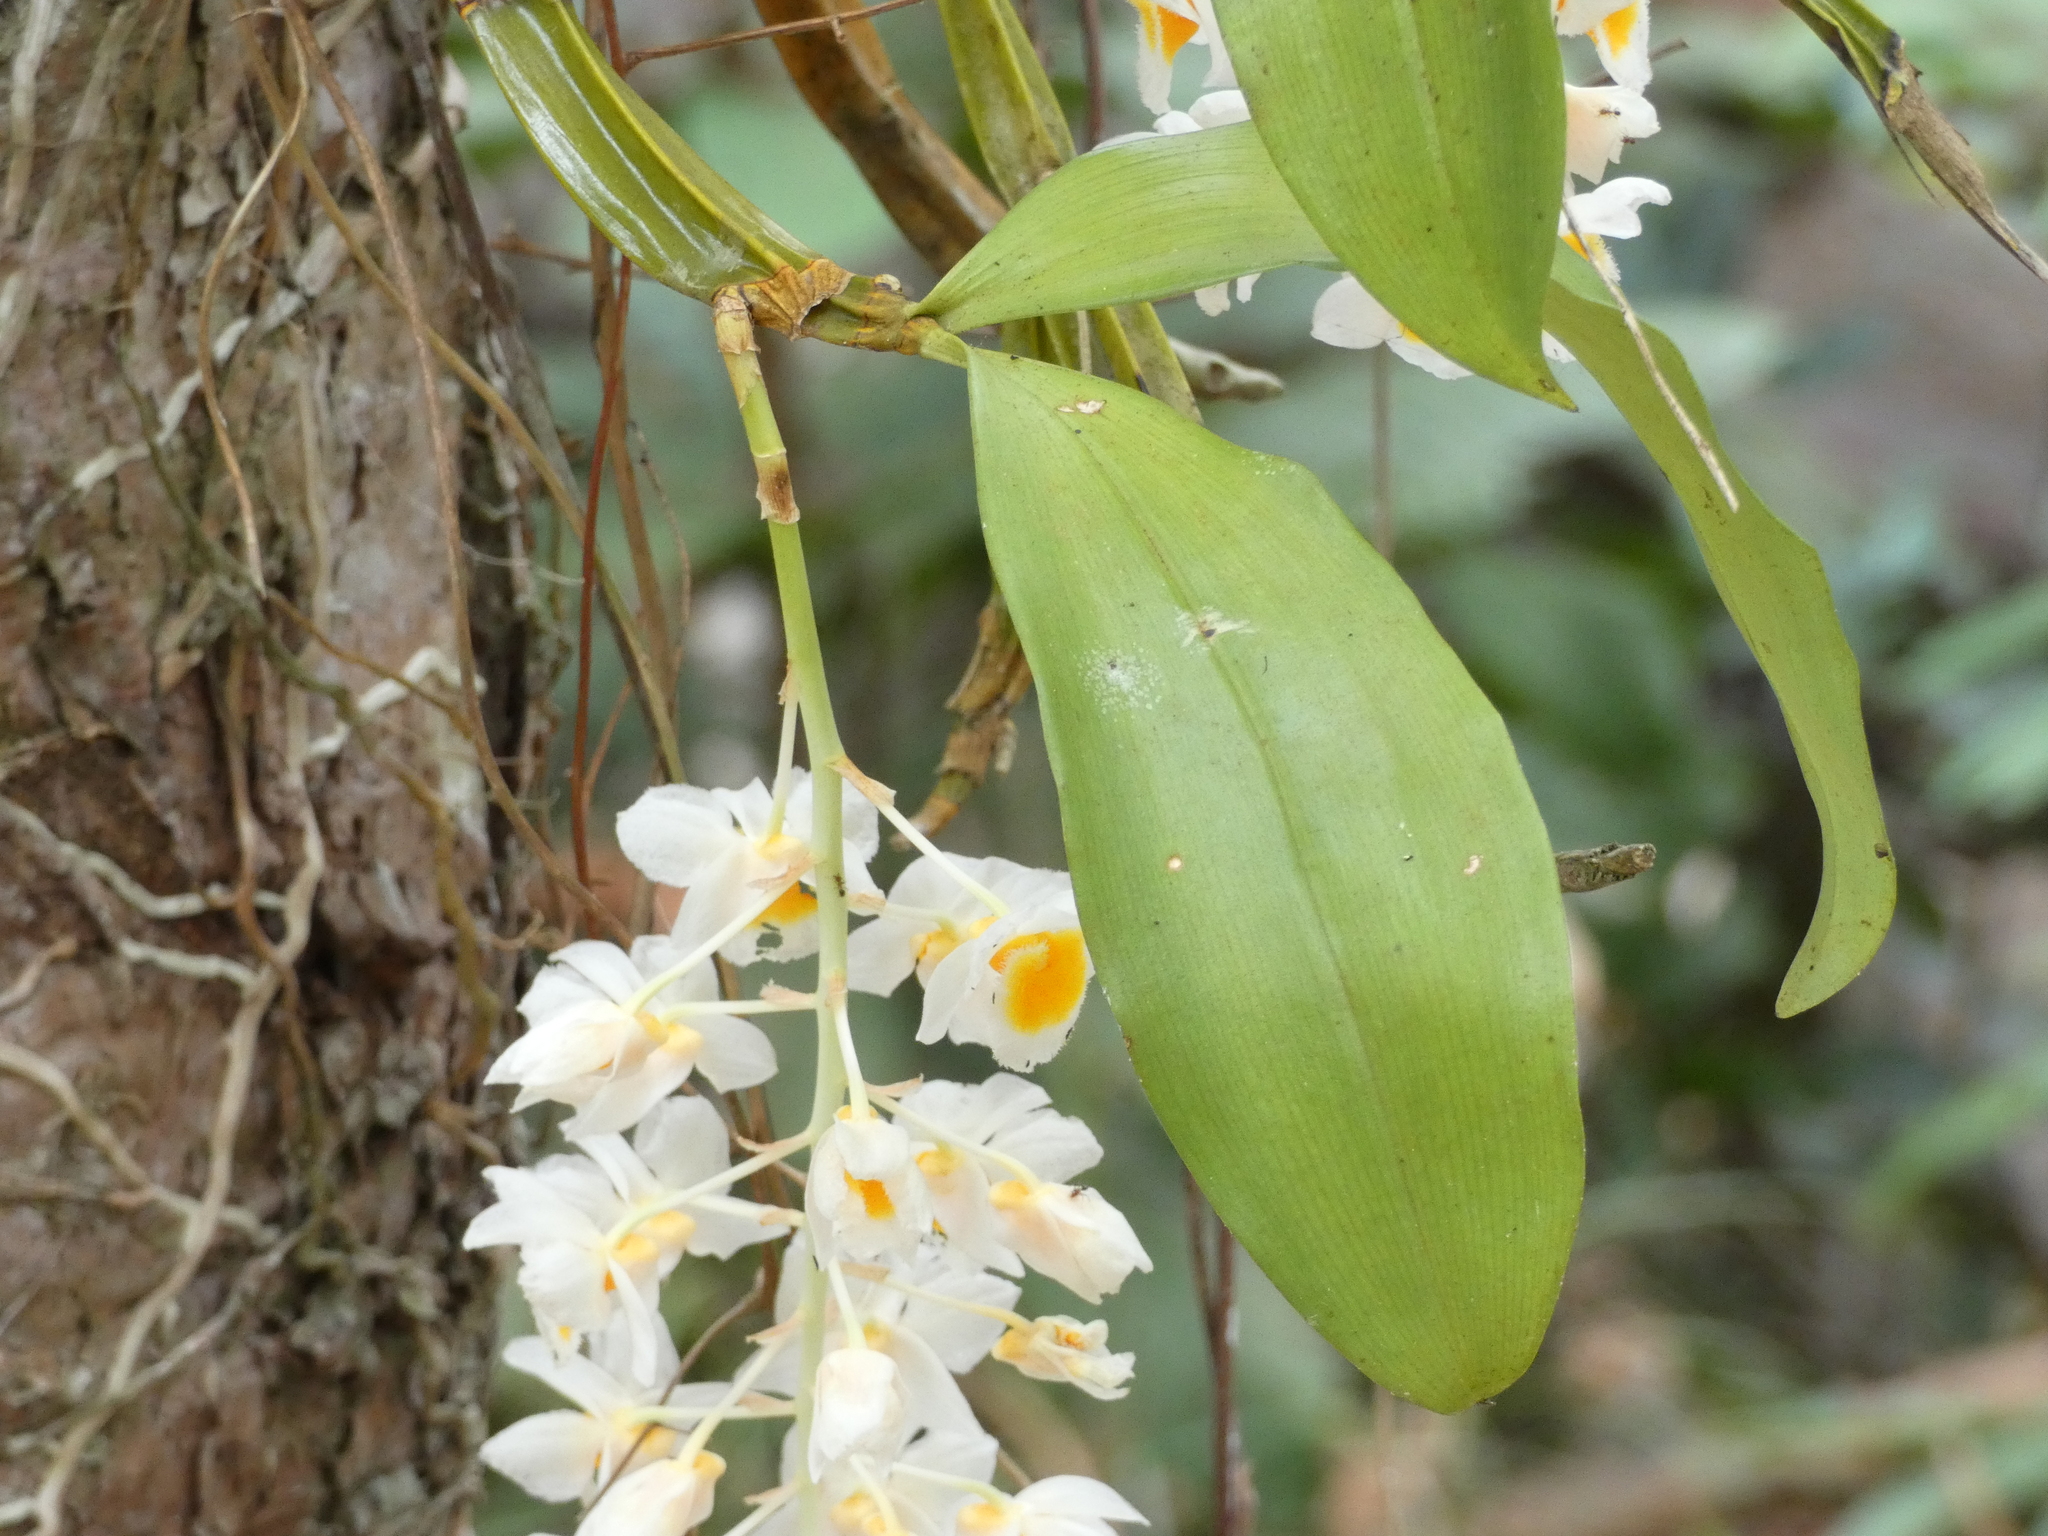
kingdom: Plantae
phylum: Tracheophyta
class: Liliopsida
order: Asparagales
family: Orchidaceae
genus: Dendrobium
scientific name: Dendrobium farmeri
